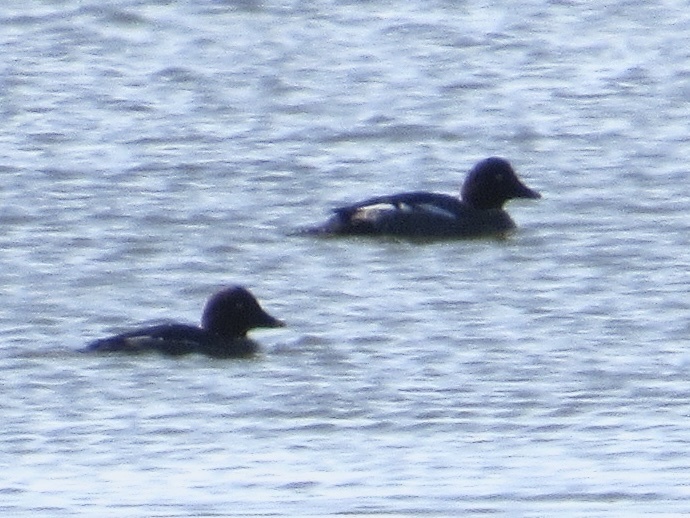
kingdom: Animalia
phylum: Chordata
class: Aves
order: Anseriformes
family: Anatidae
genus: Bucephala
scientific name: Bucephala clangula
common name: Common goldeneye
